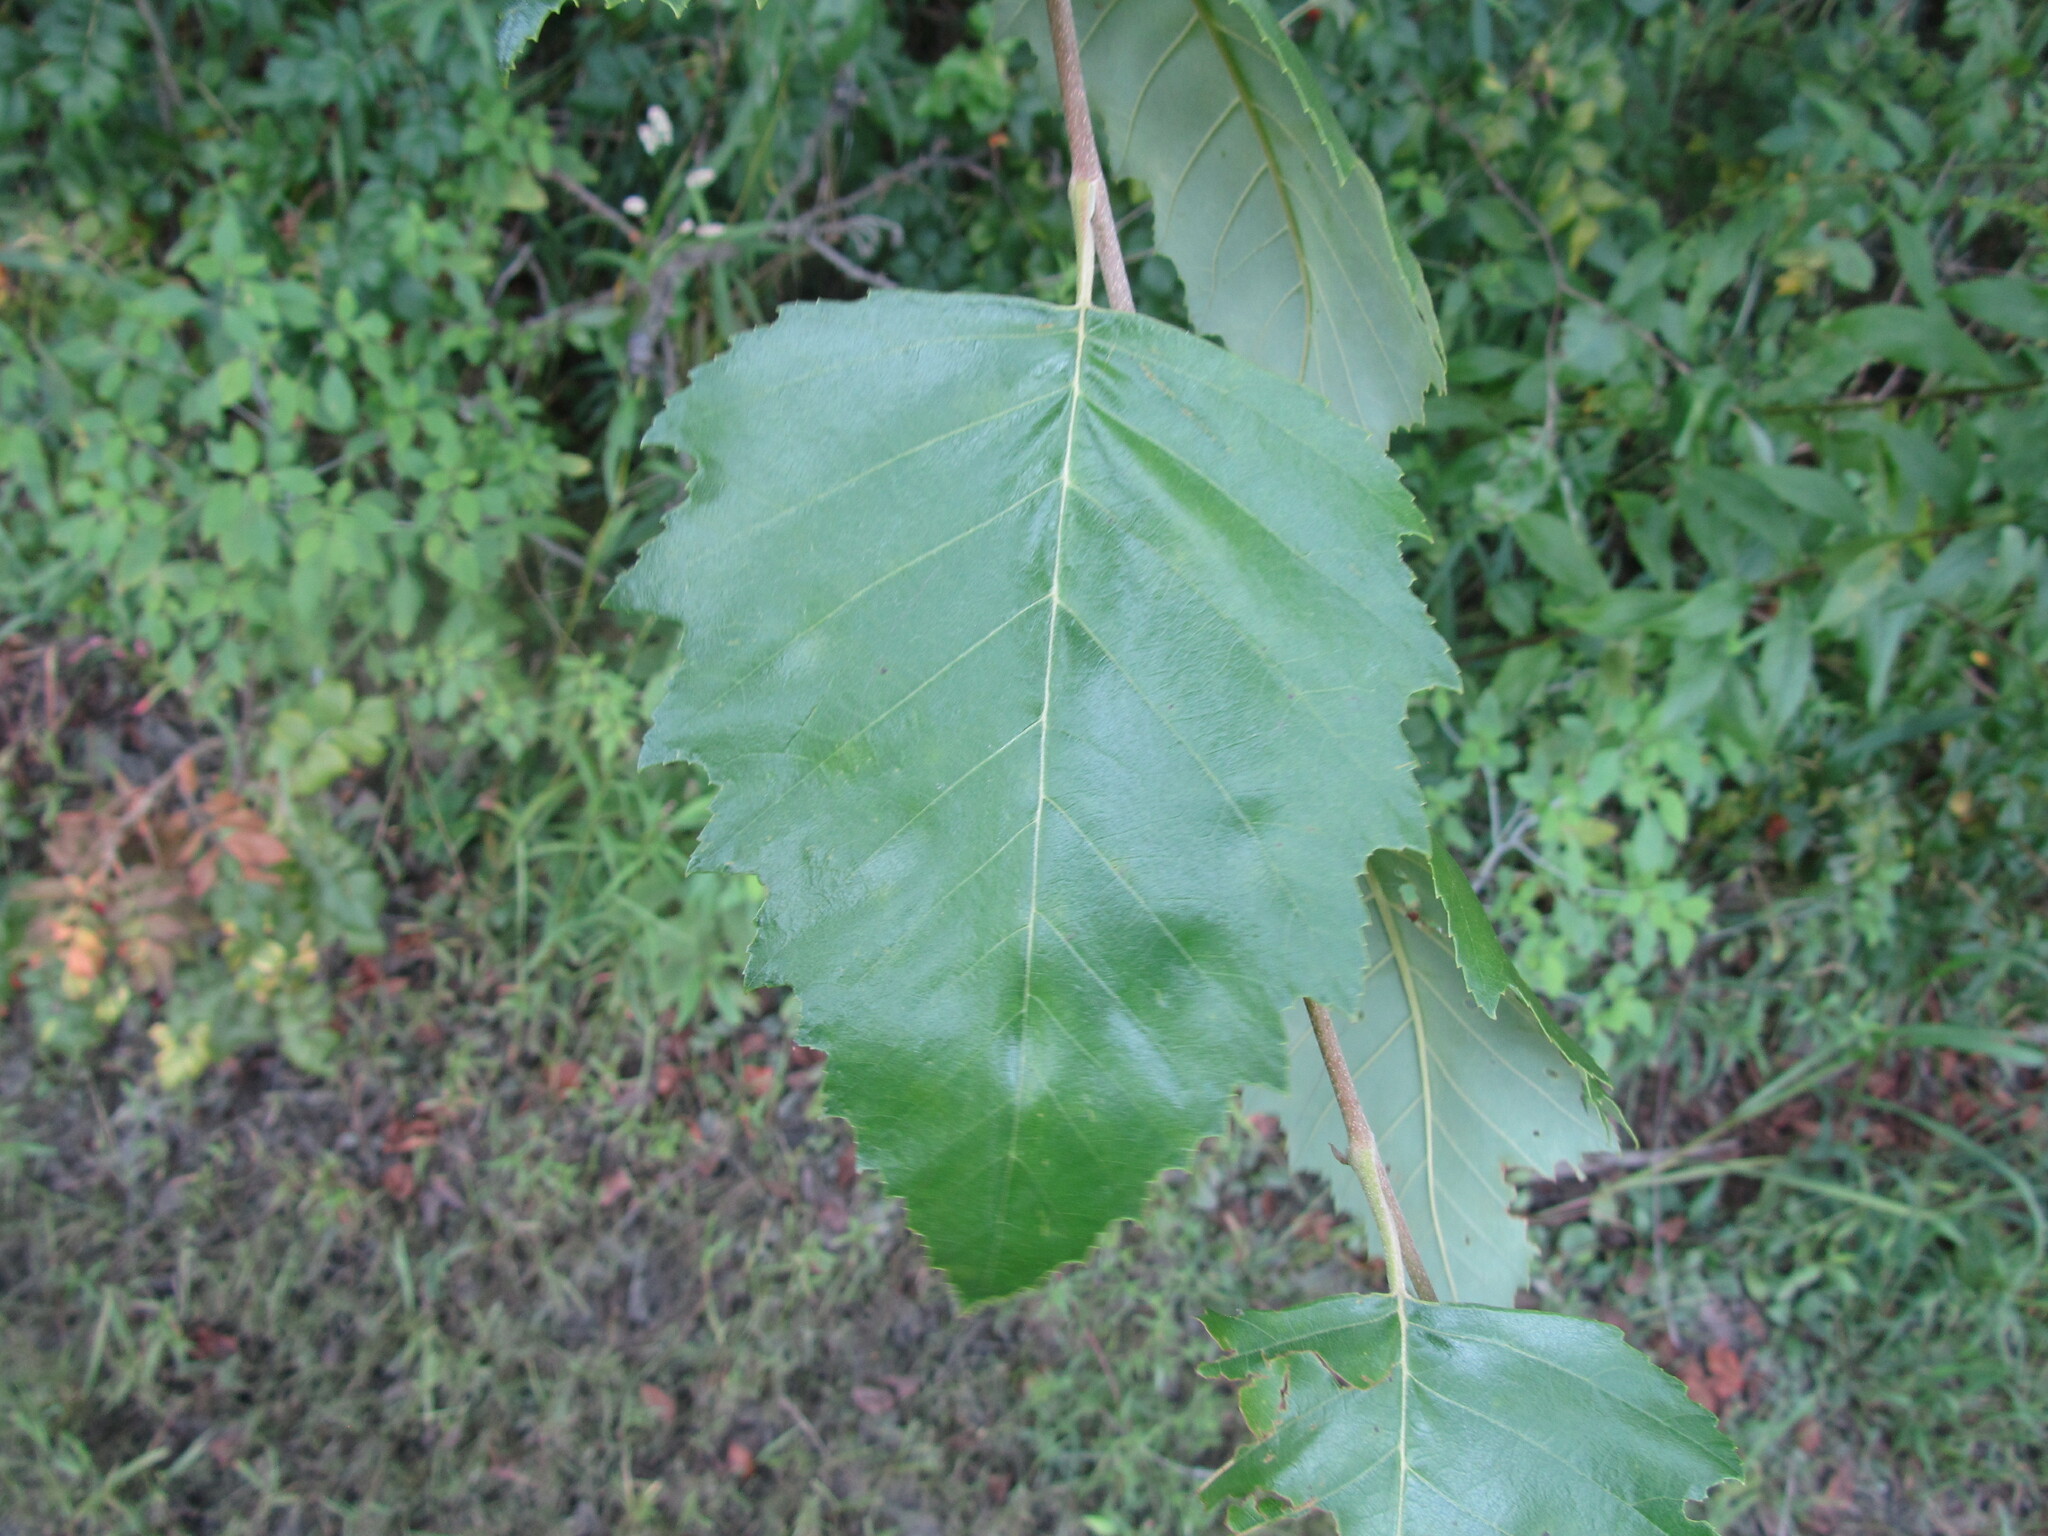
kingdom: Plantae
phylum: Tracheophyta
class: Magnoliopsida
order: Fagales
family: Betulaceae
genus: Betula
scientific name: Betula nigra
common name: Black birch
